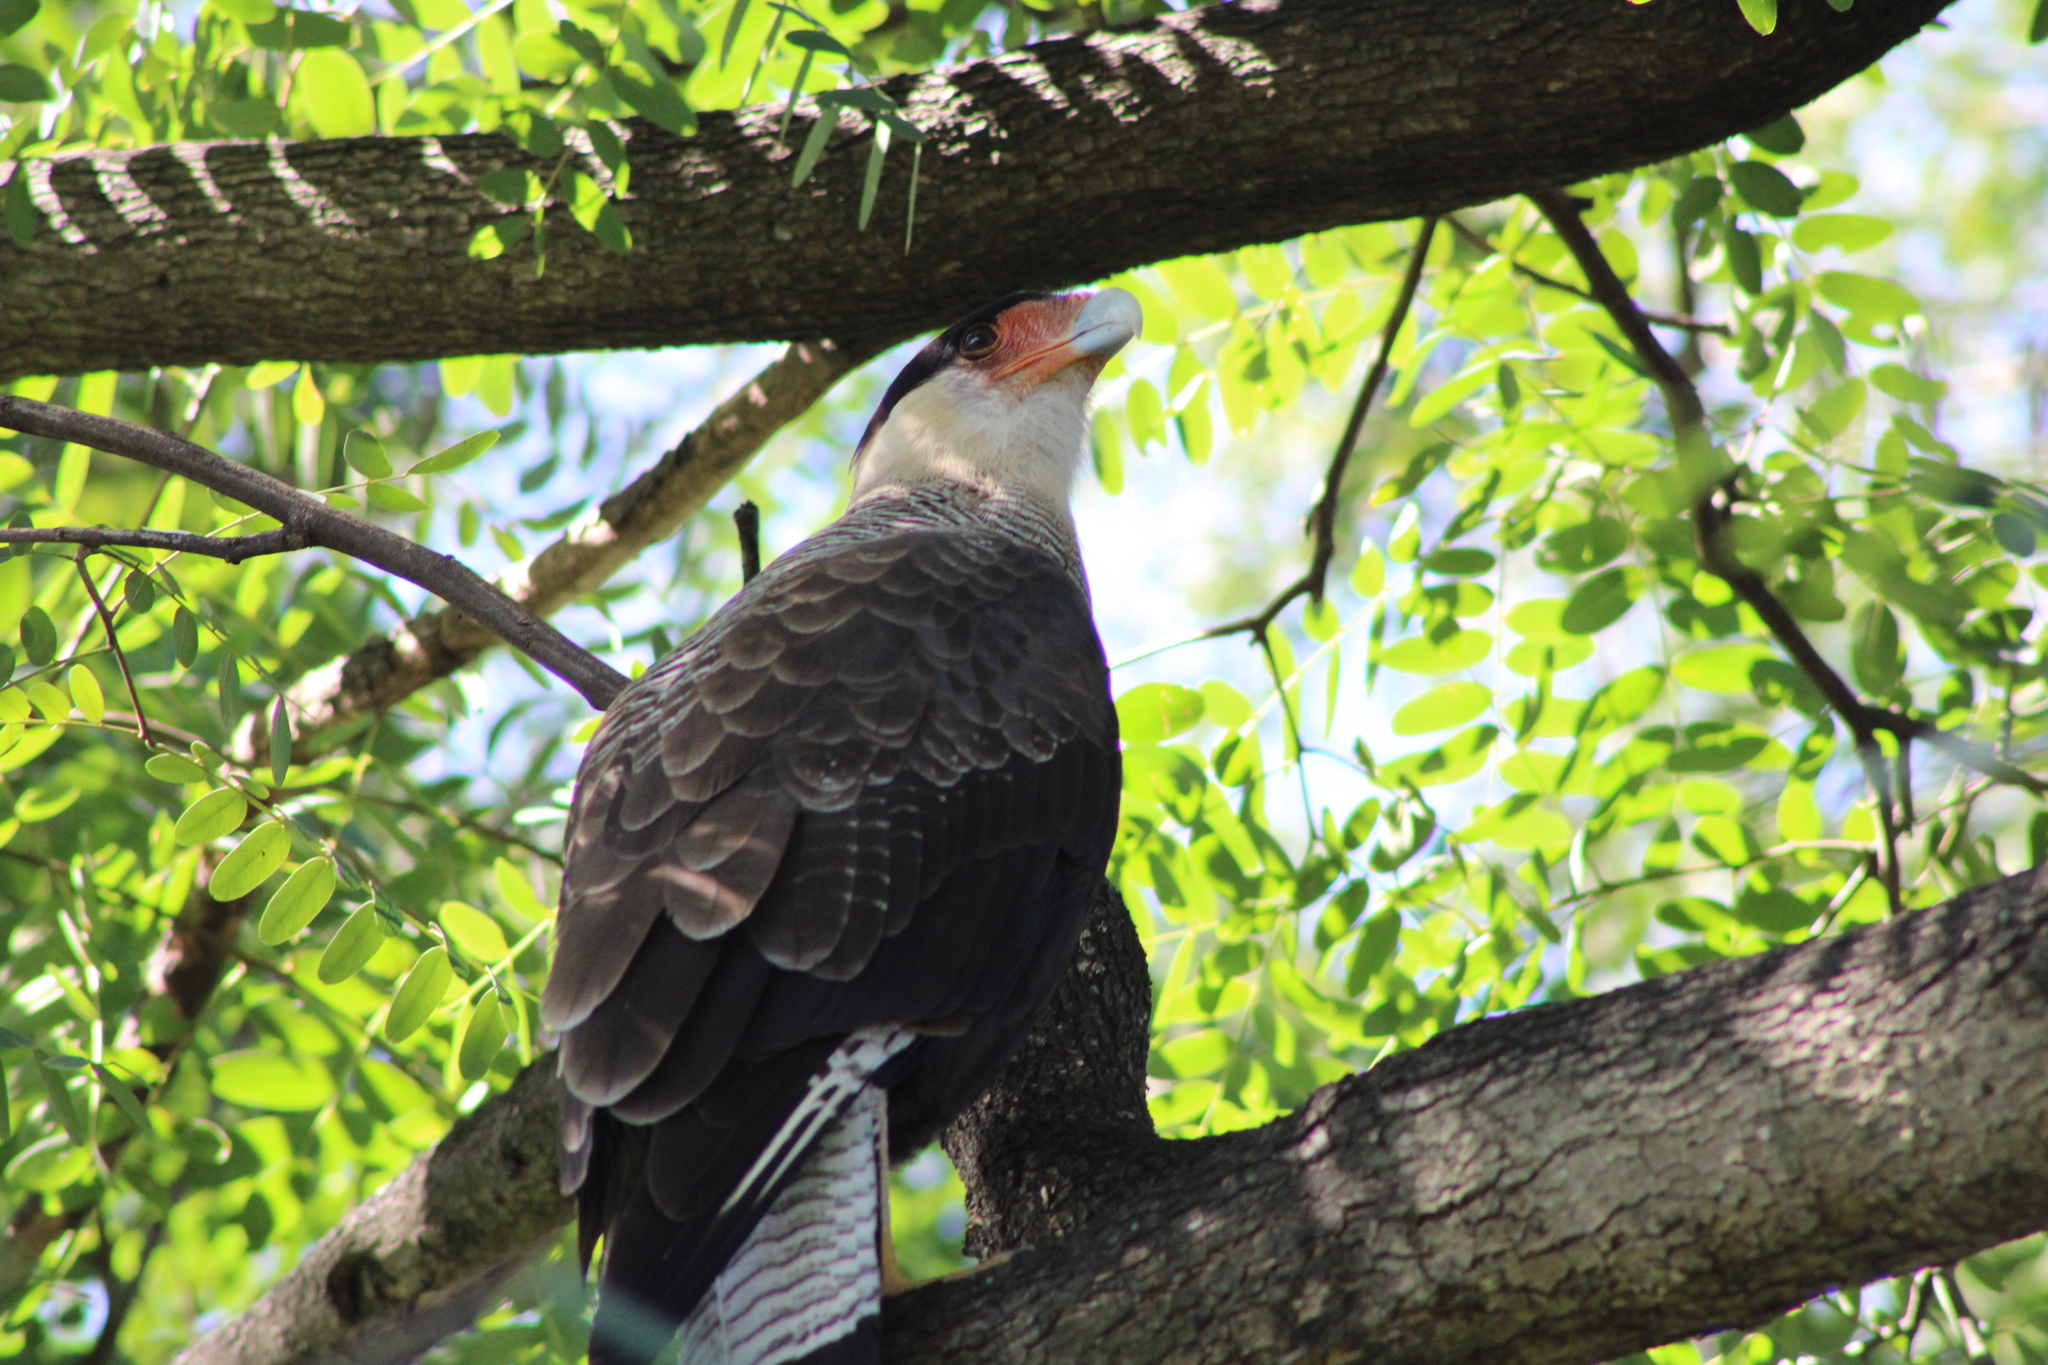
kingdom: Animalia
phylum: Chordata
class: Aves
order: Falconiformes
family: Falconidae
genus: Caracara
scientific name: Caracara plancus
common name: Southern caracara
